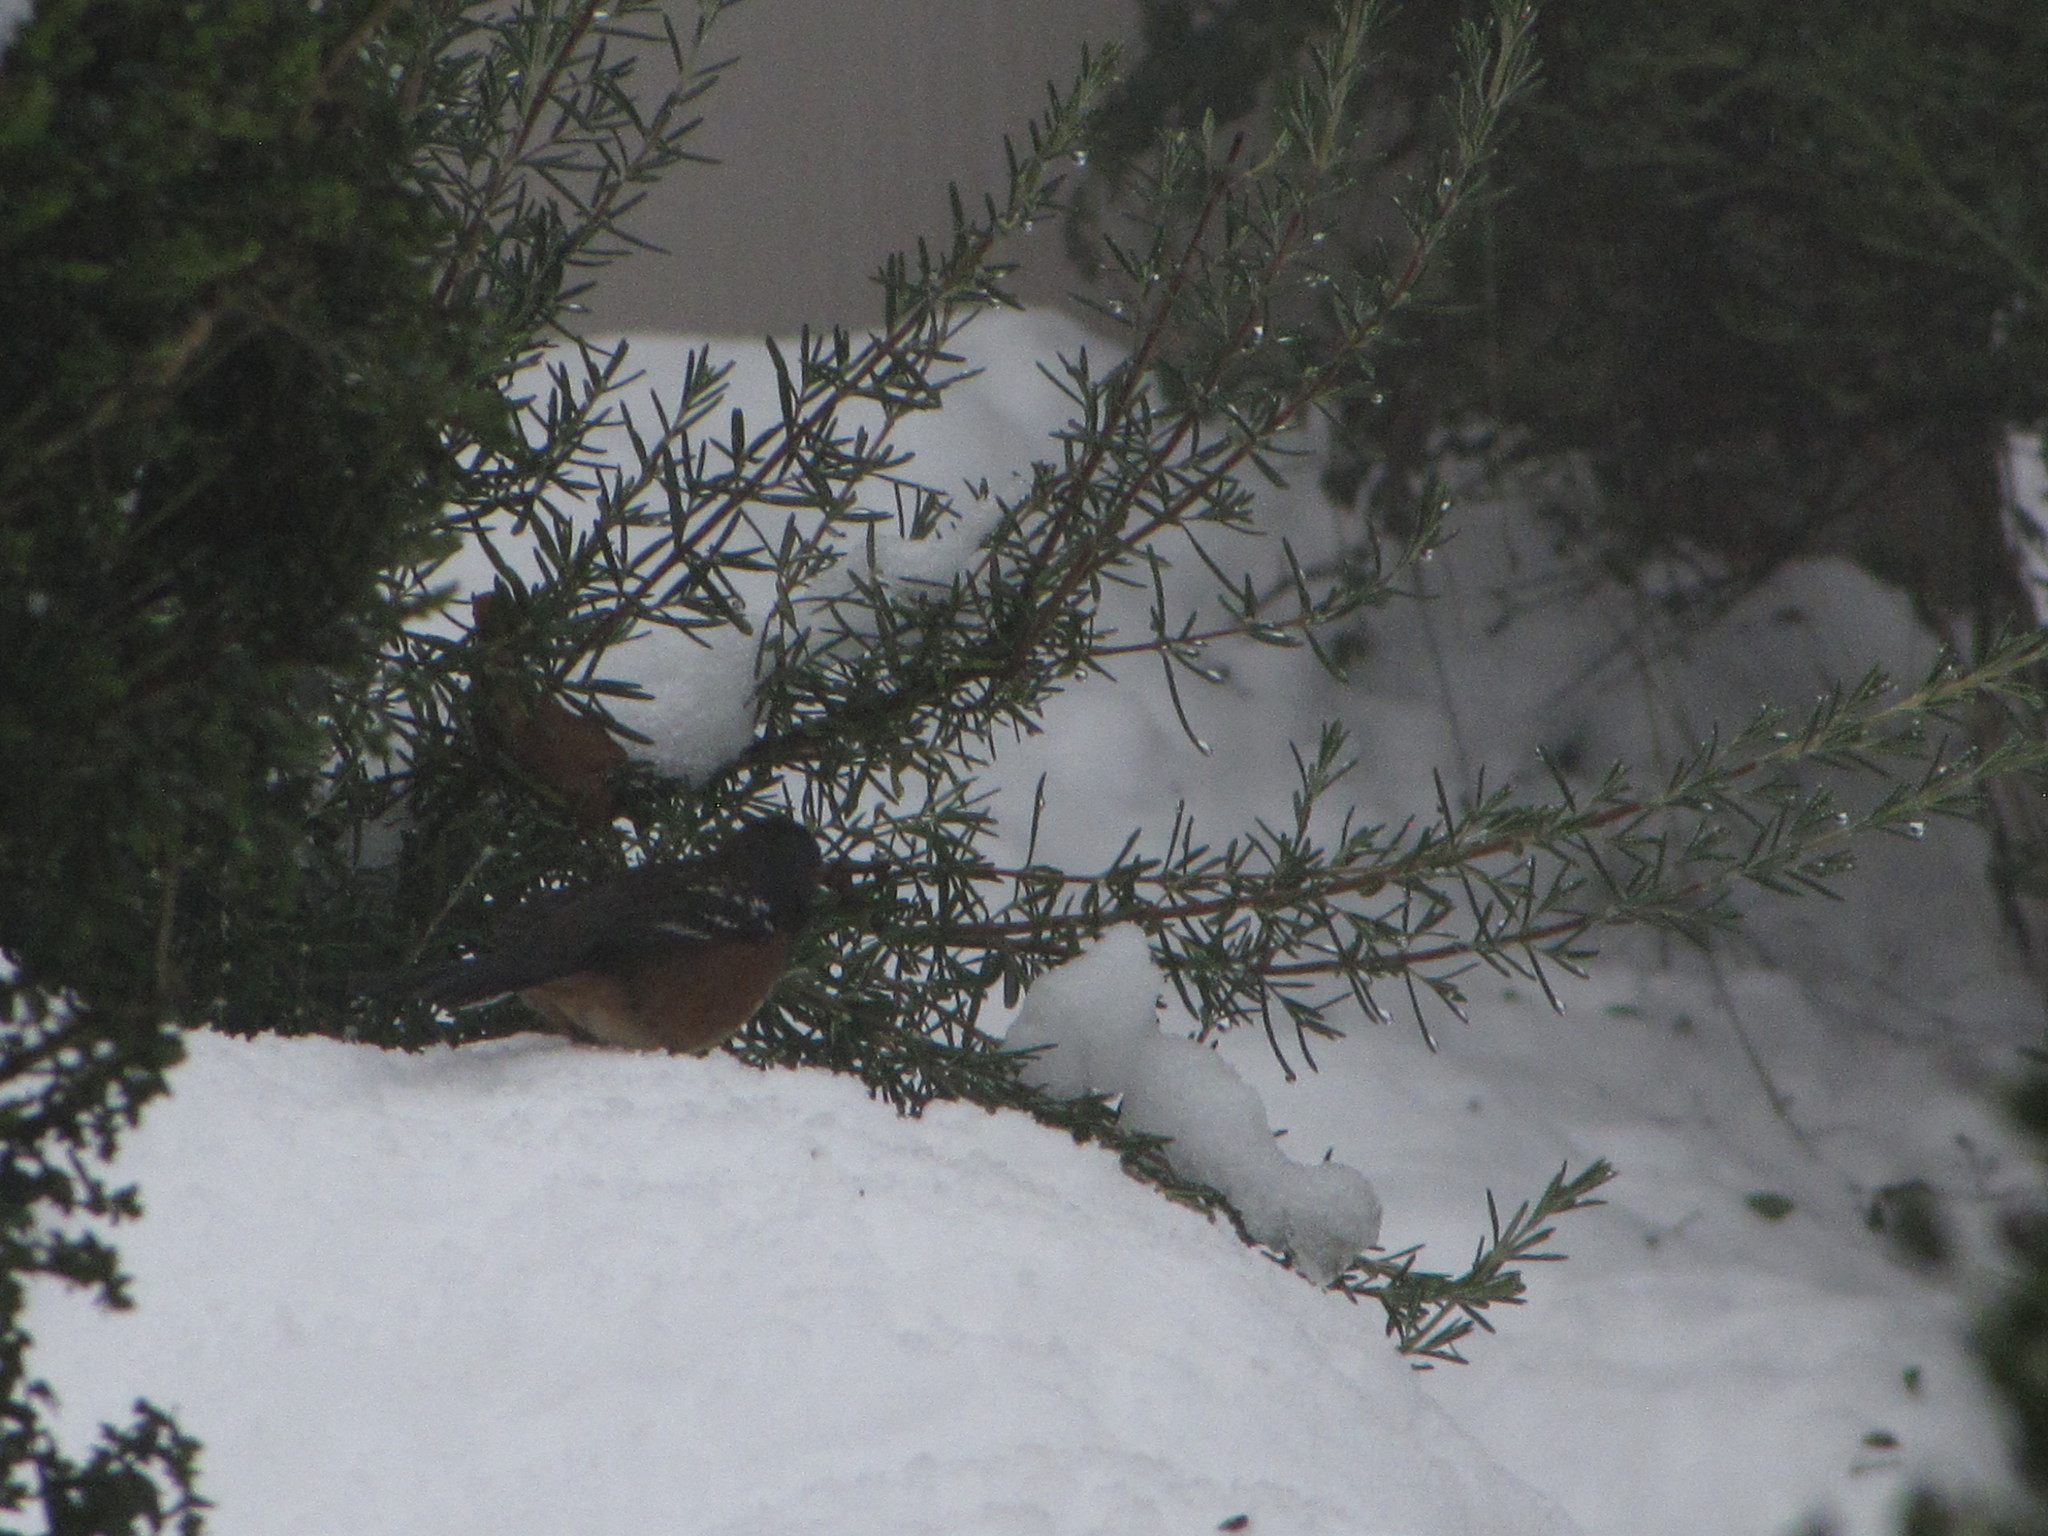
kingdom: Animalia
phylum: Chordata
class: Aves
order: Passeriformes
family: Passerellidae
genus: Pipilo
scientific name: Pipilo maculatus
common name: Spotted towhee
